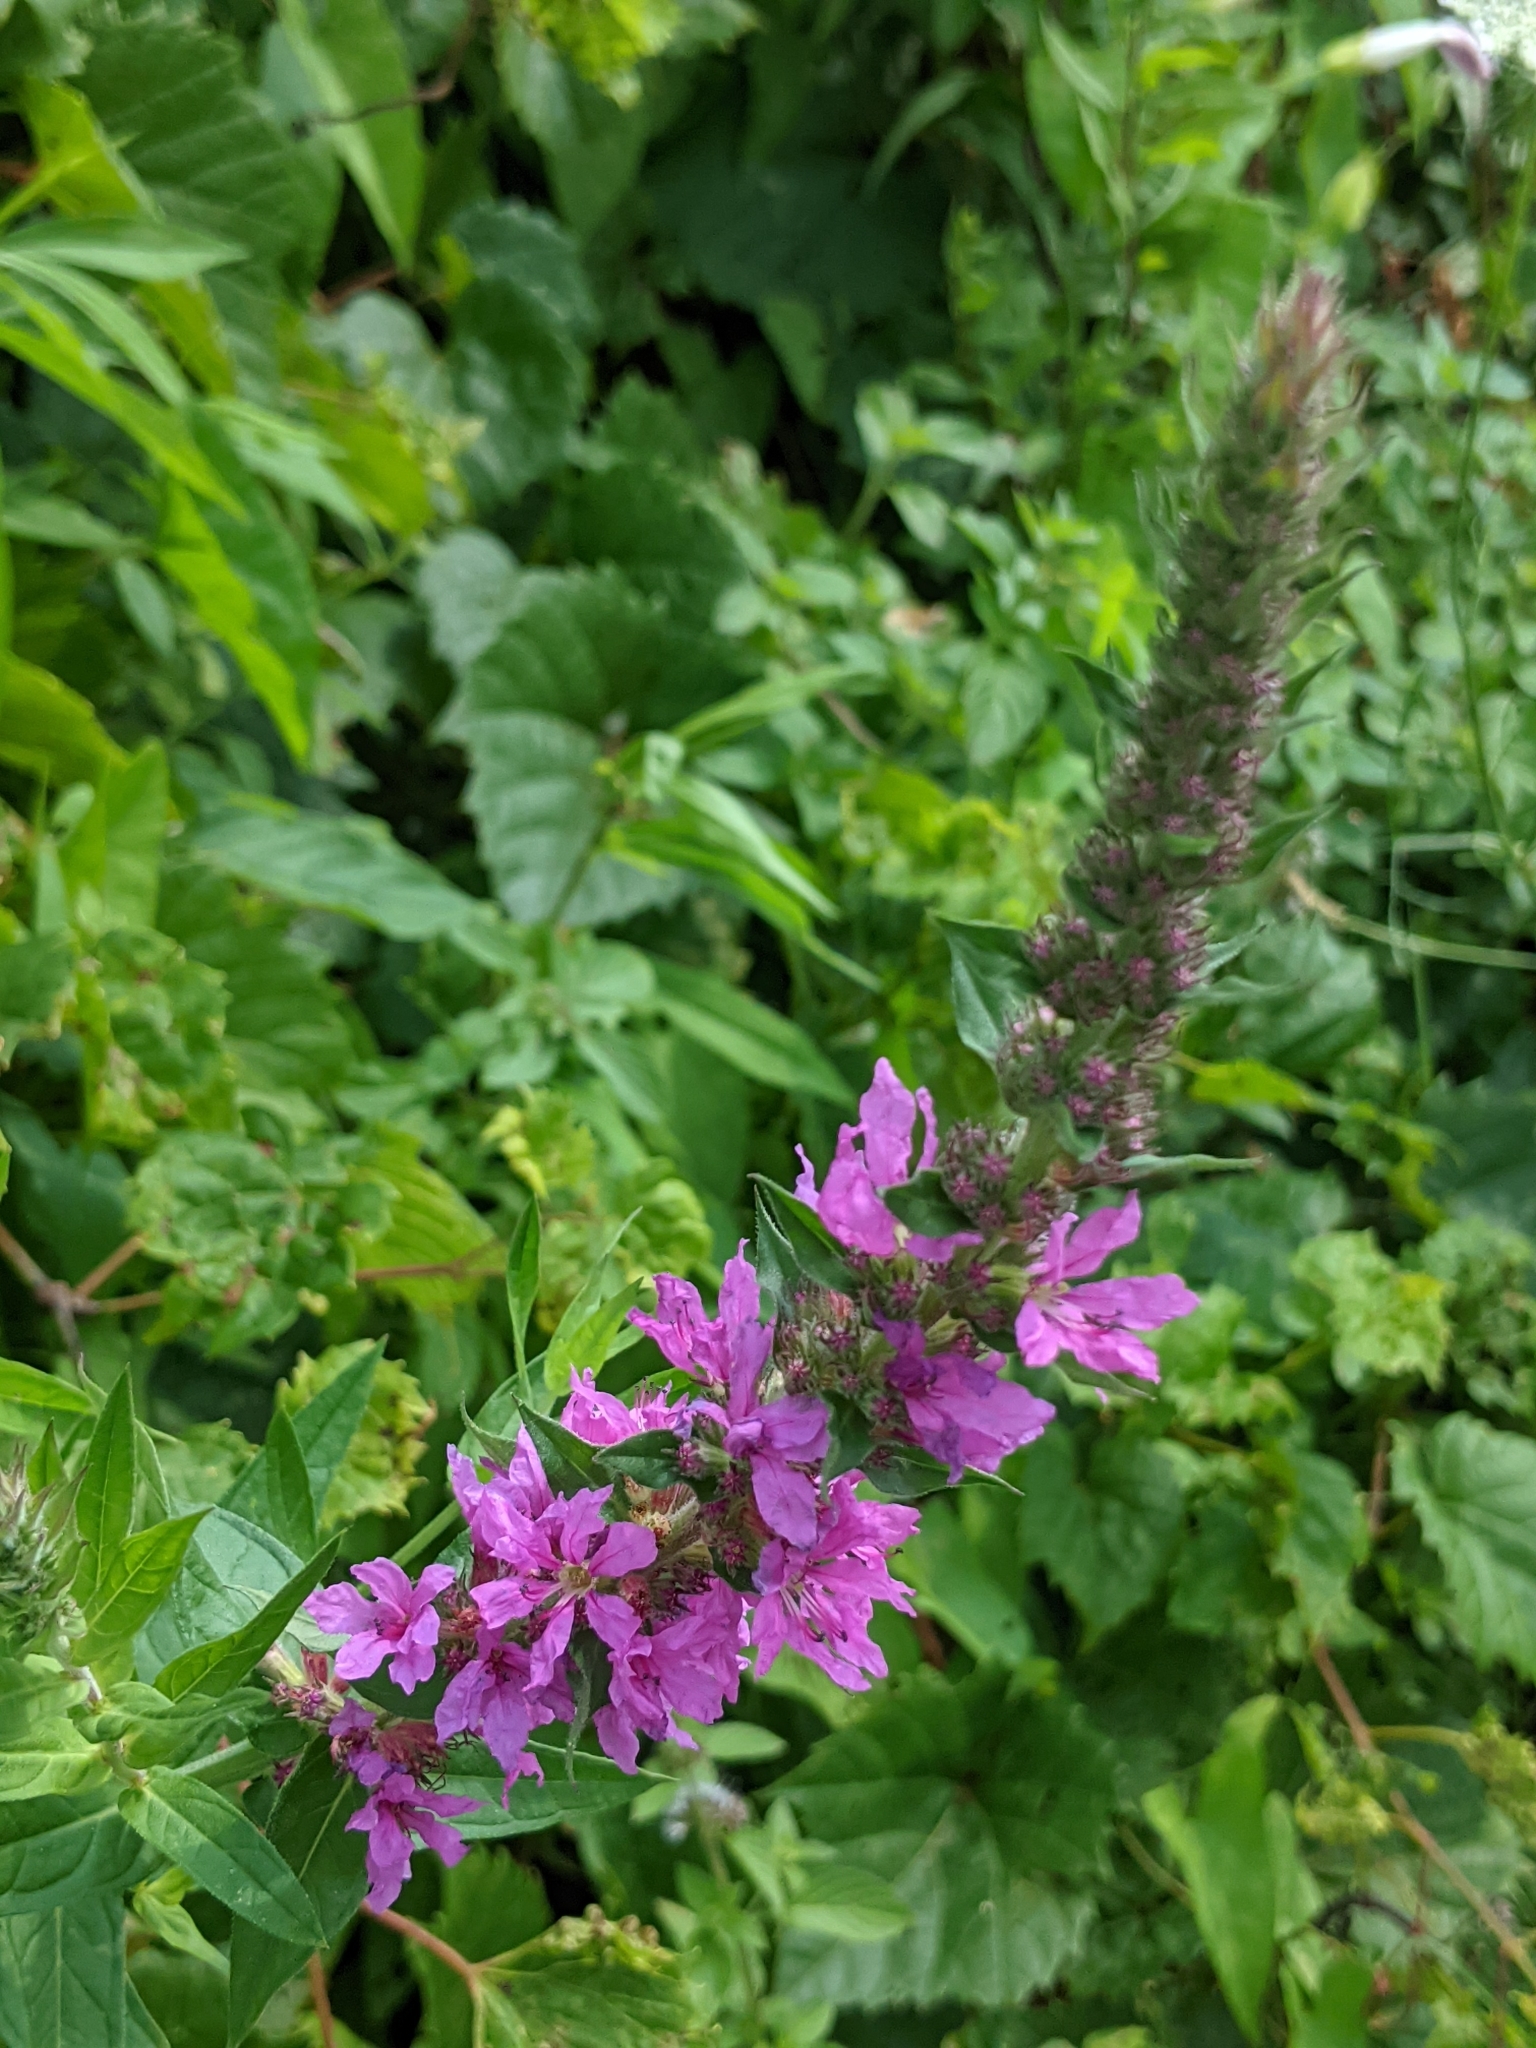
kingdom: Plantae
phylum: Tracheophyta
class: Magnoliopsida
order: Myrtales
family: Lythraceae
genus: Lythrum
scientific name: Lythrum salicaria
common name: Purple loosestrife
